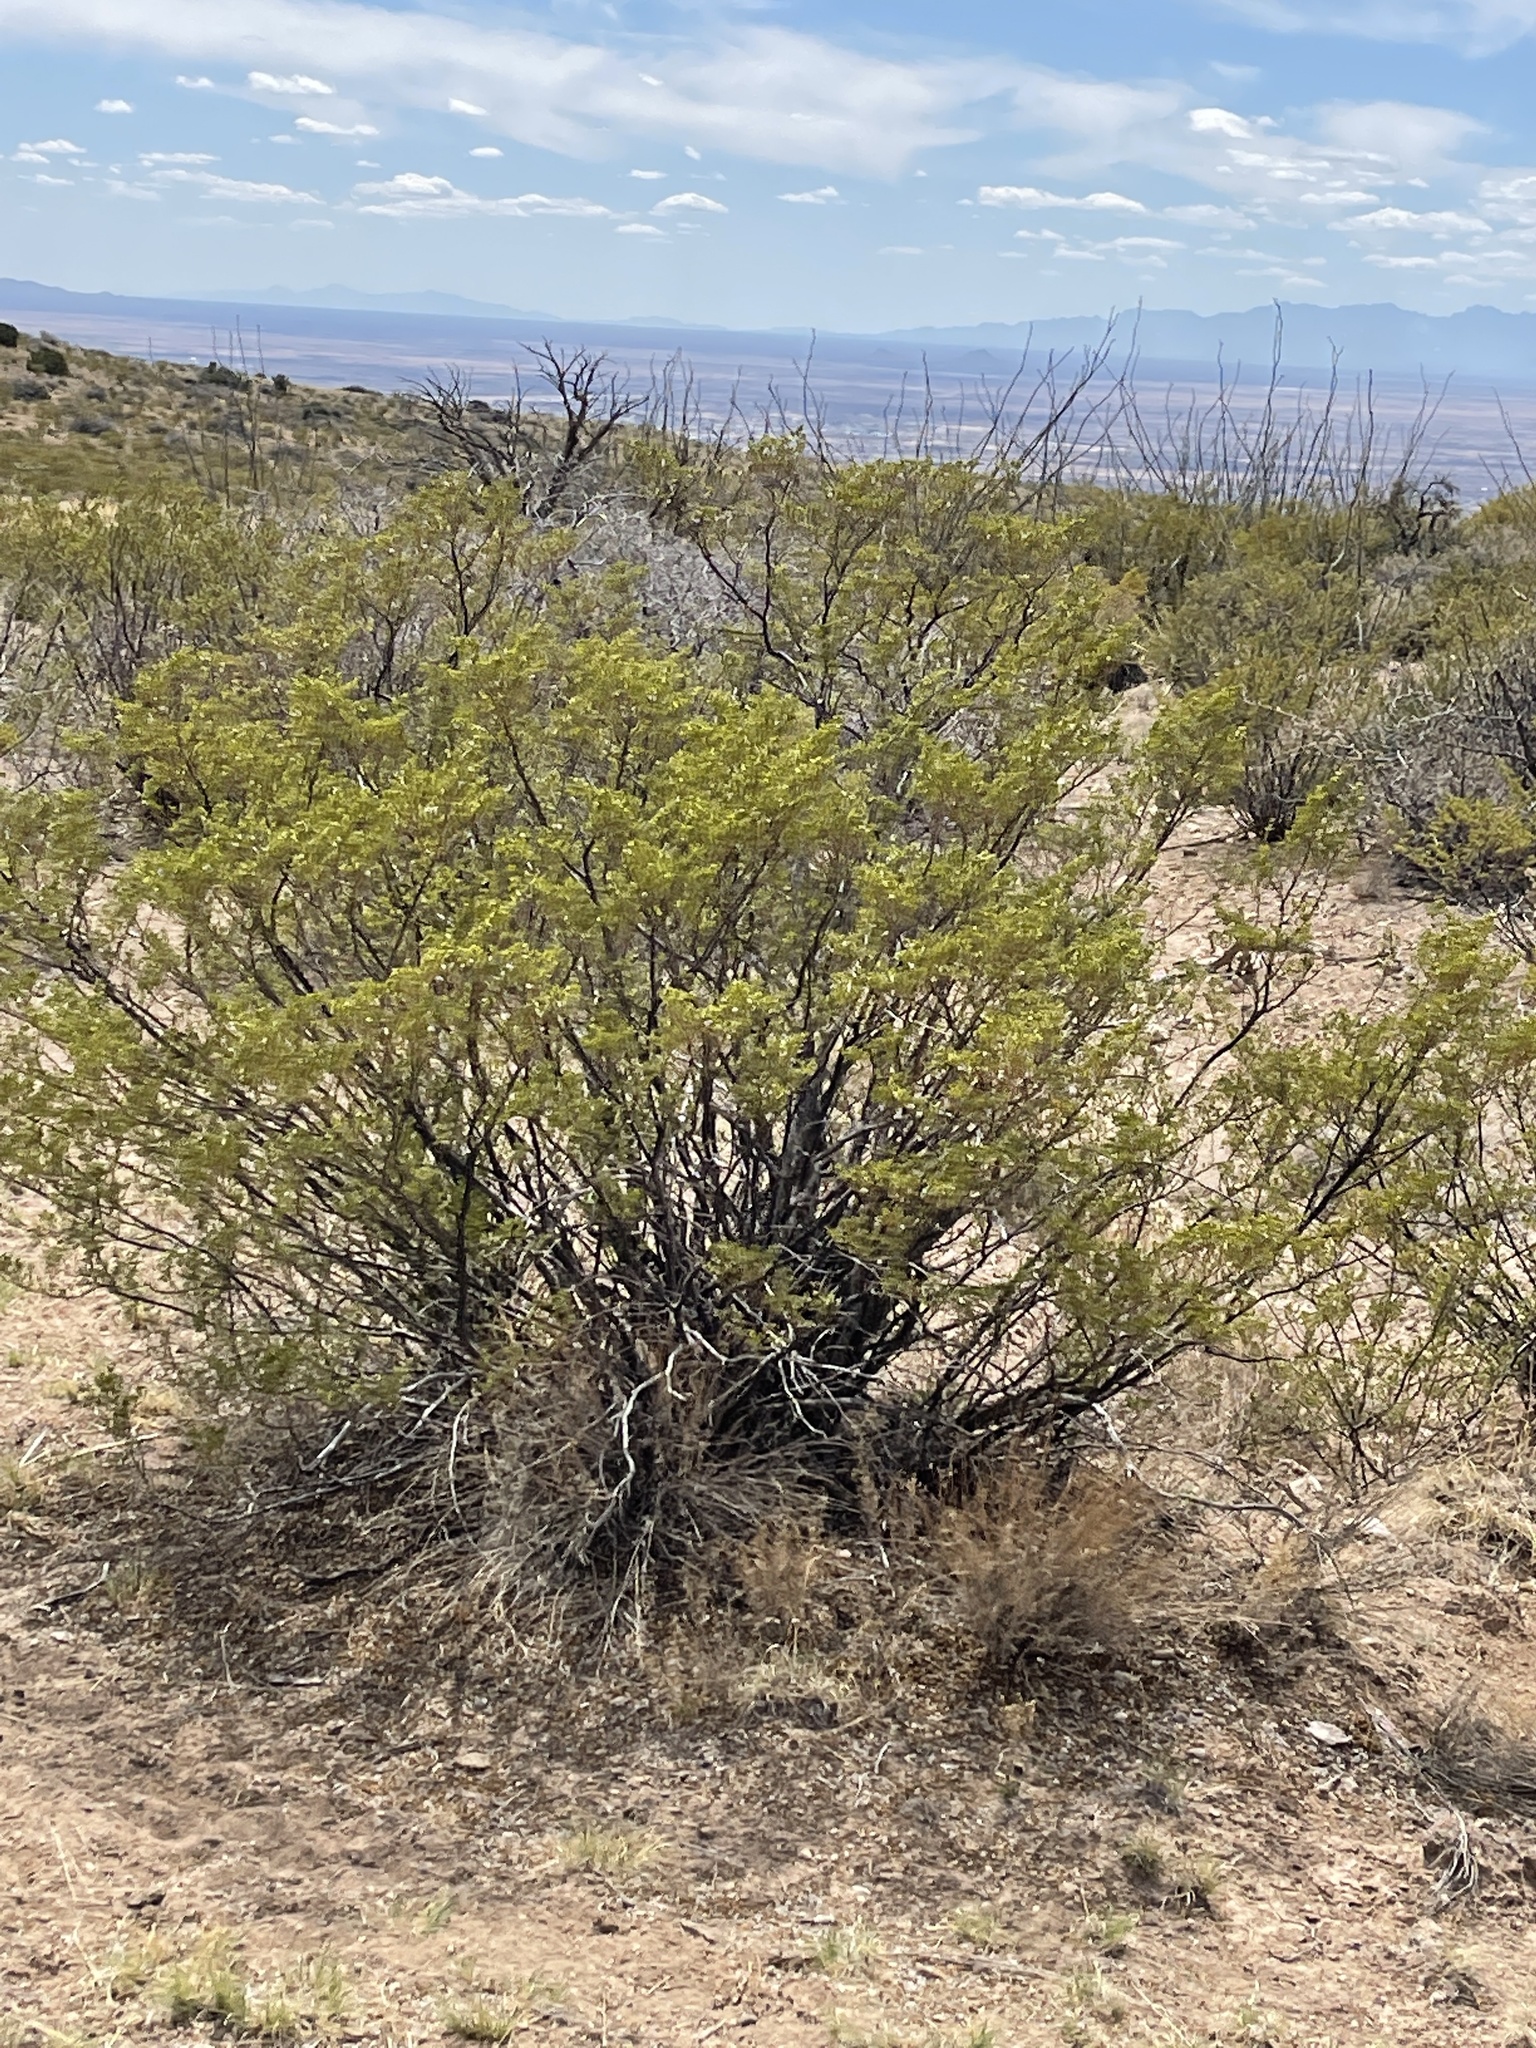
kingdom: Plantae
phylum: Tracheophyta
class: Magnoliopsida
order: Zygophyllales
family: Zygophyllaceae
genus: Larrea
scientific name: Larrea tridentata
